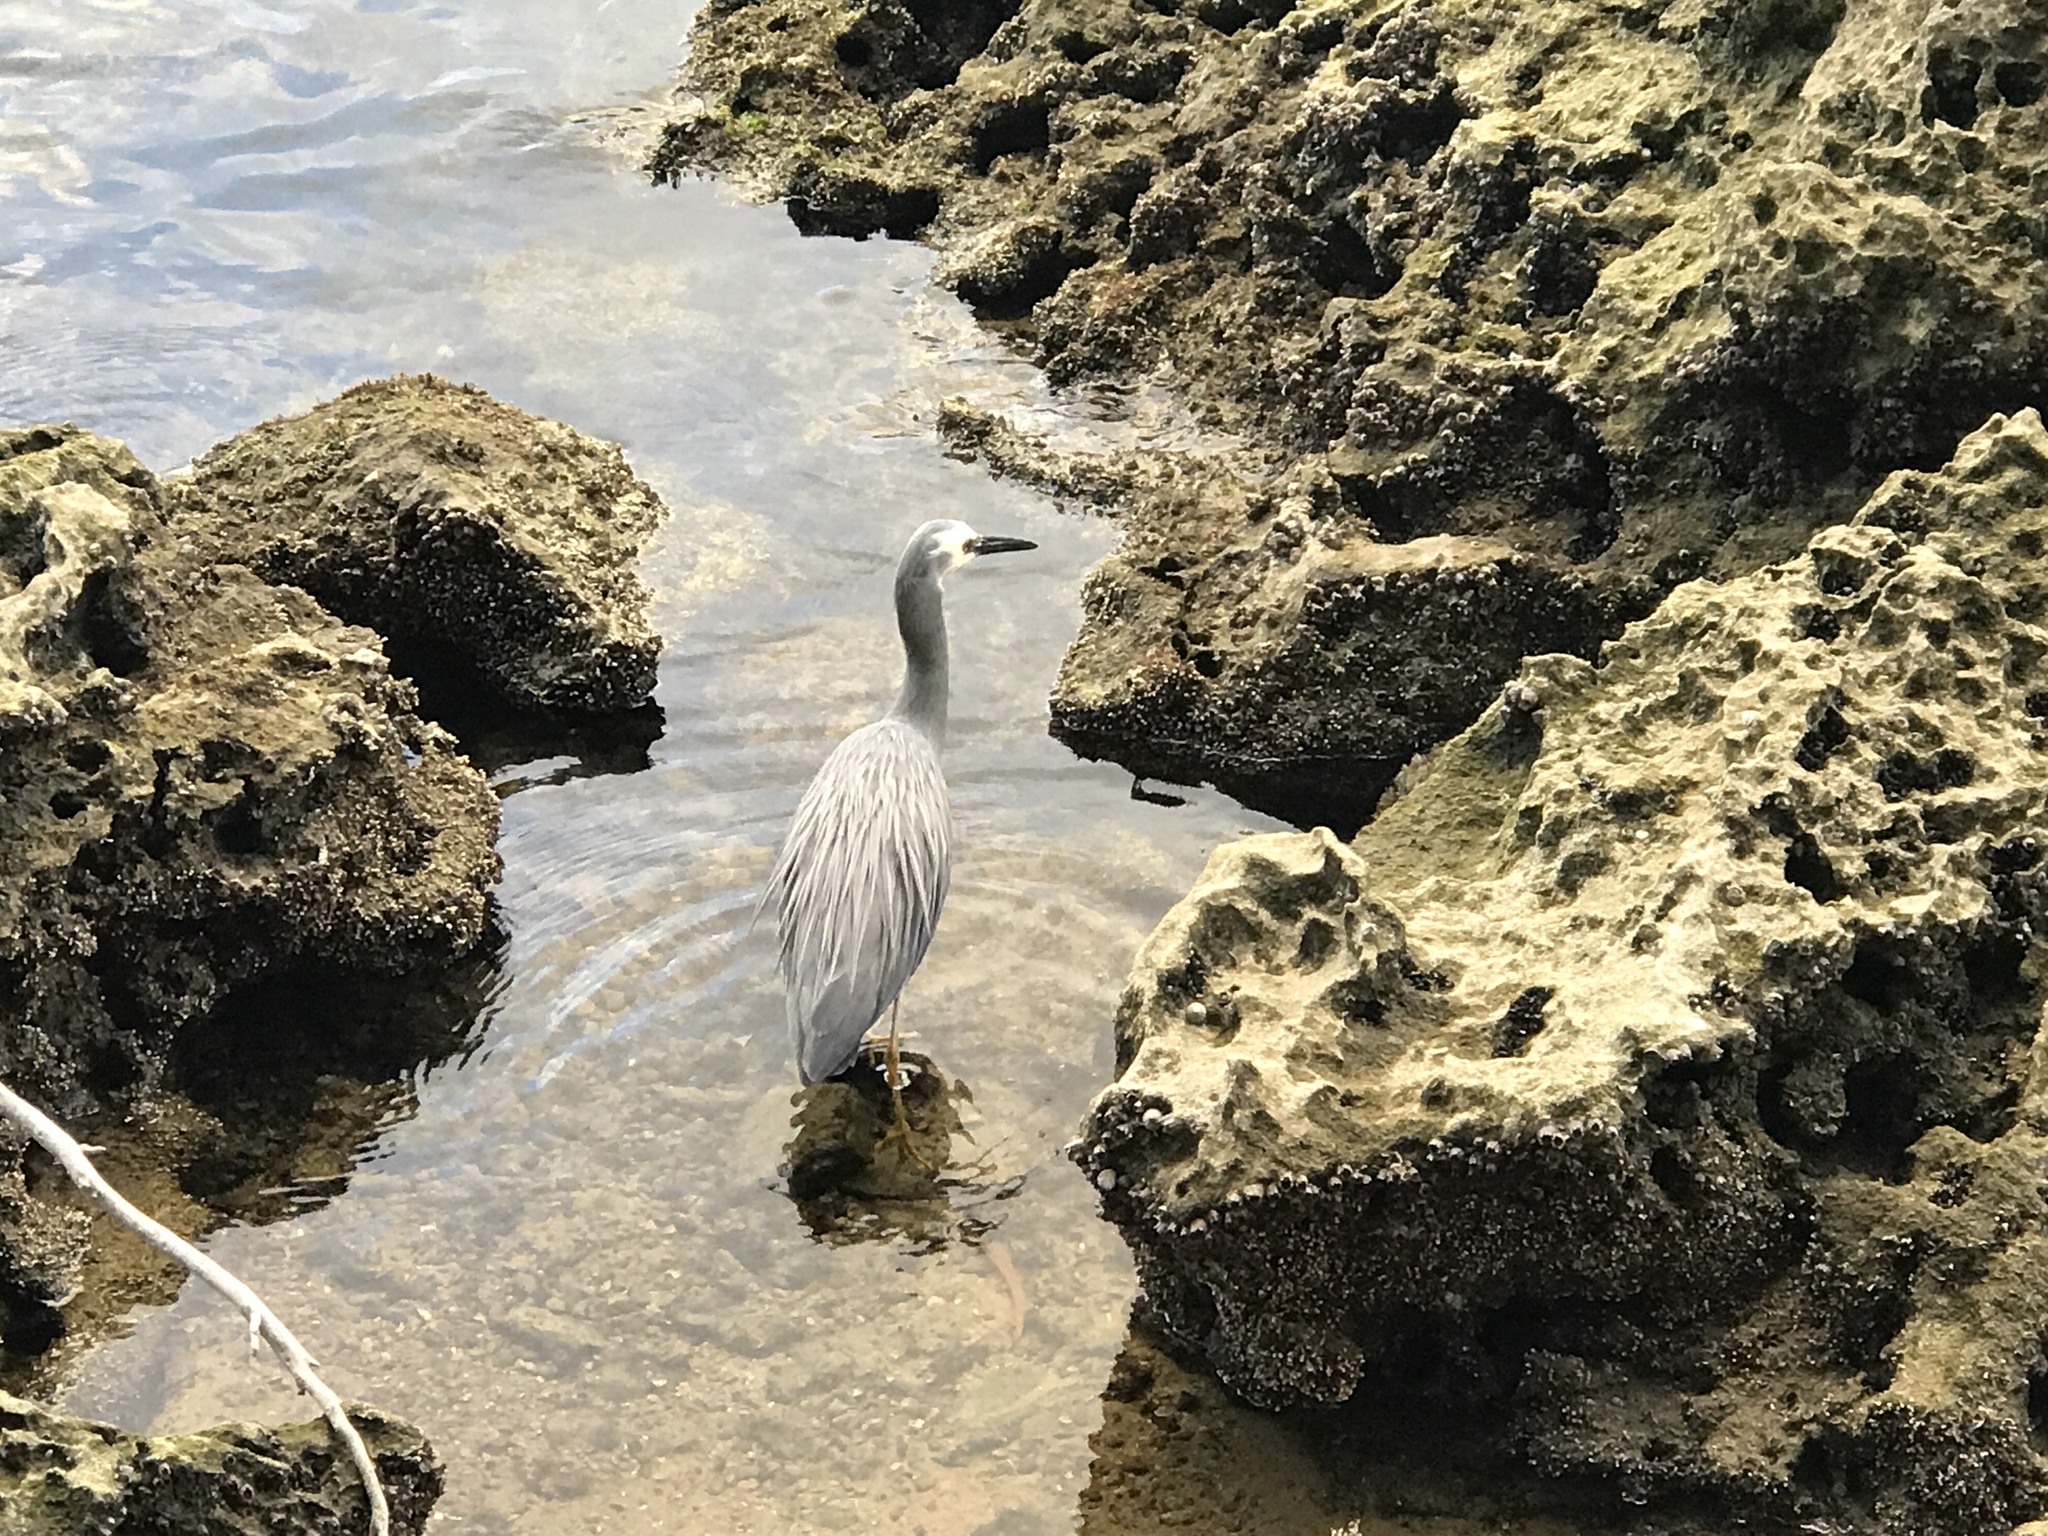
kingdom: Animalia
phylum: Chordata
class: Aves
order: Pelecaniformes
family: Ardeidae
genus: Egretta
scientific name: Egretta novaehollandiae
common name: White-faced heron
